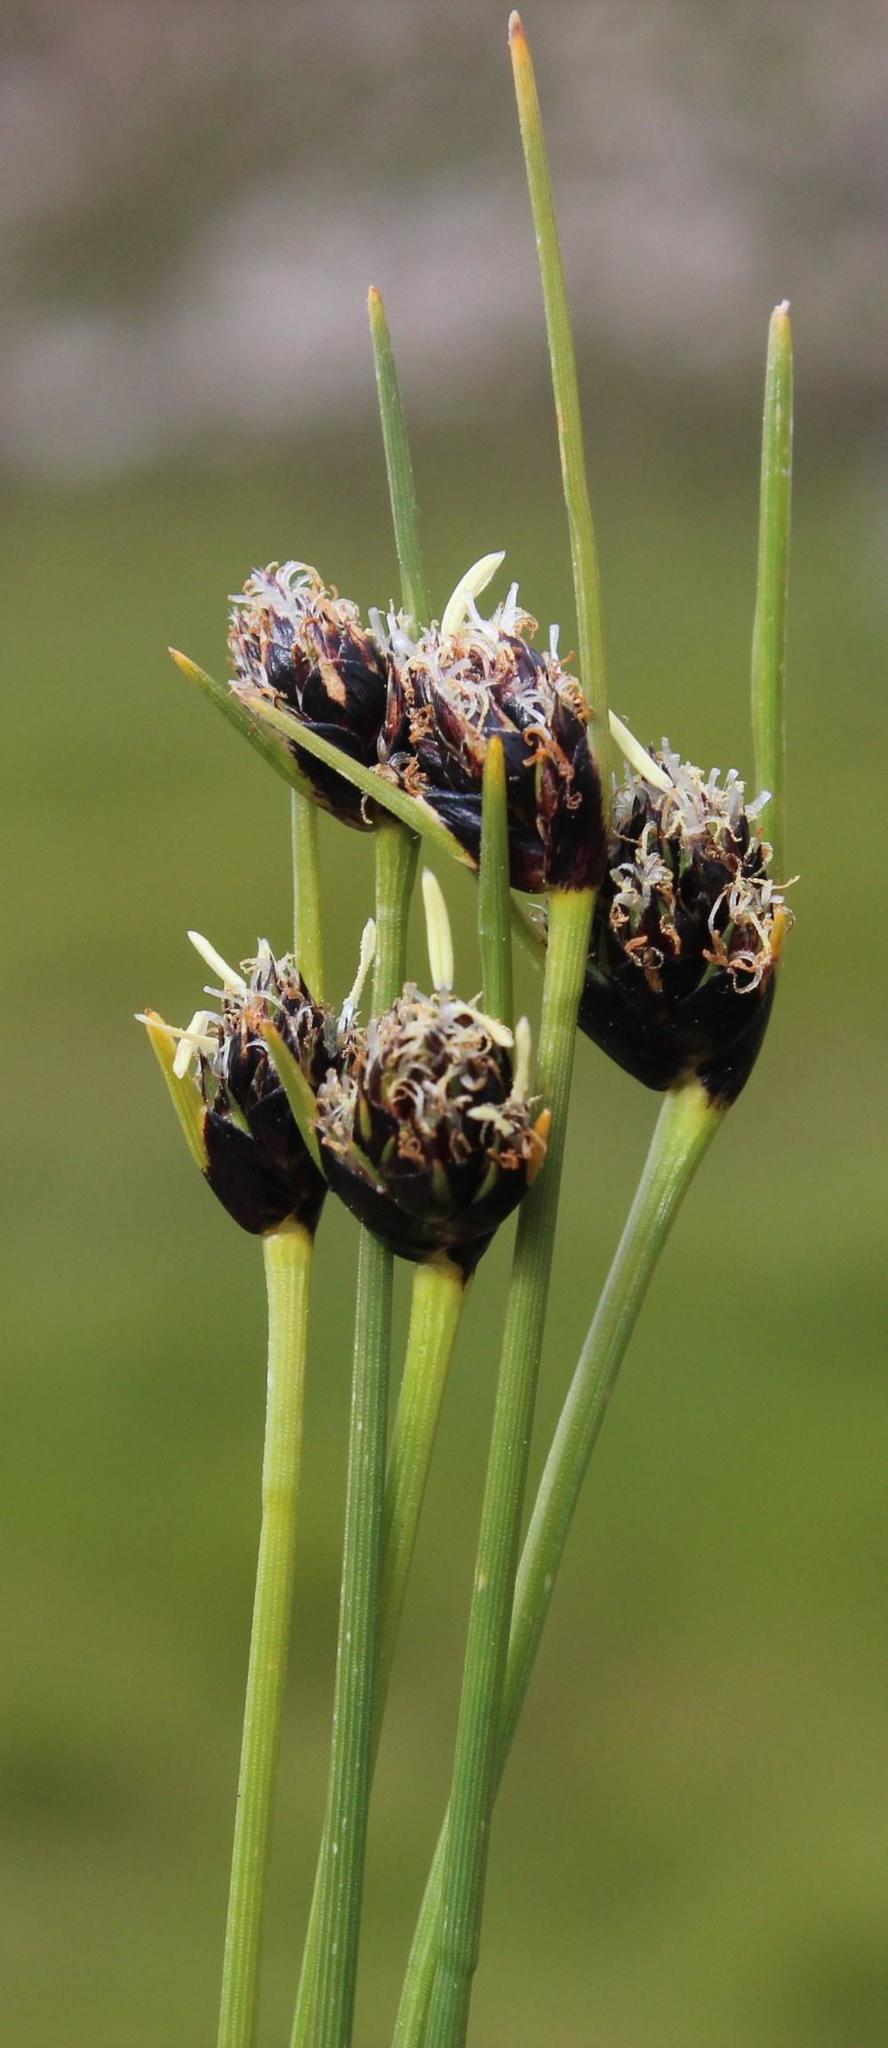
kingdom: Plantae
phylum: Tracheophyta
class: Liliopsida
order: Poales
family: Cyperaceae
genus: Ficinia
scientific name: Ficinia indica
